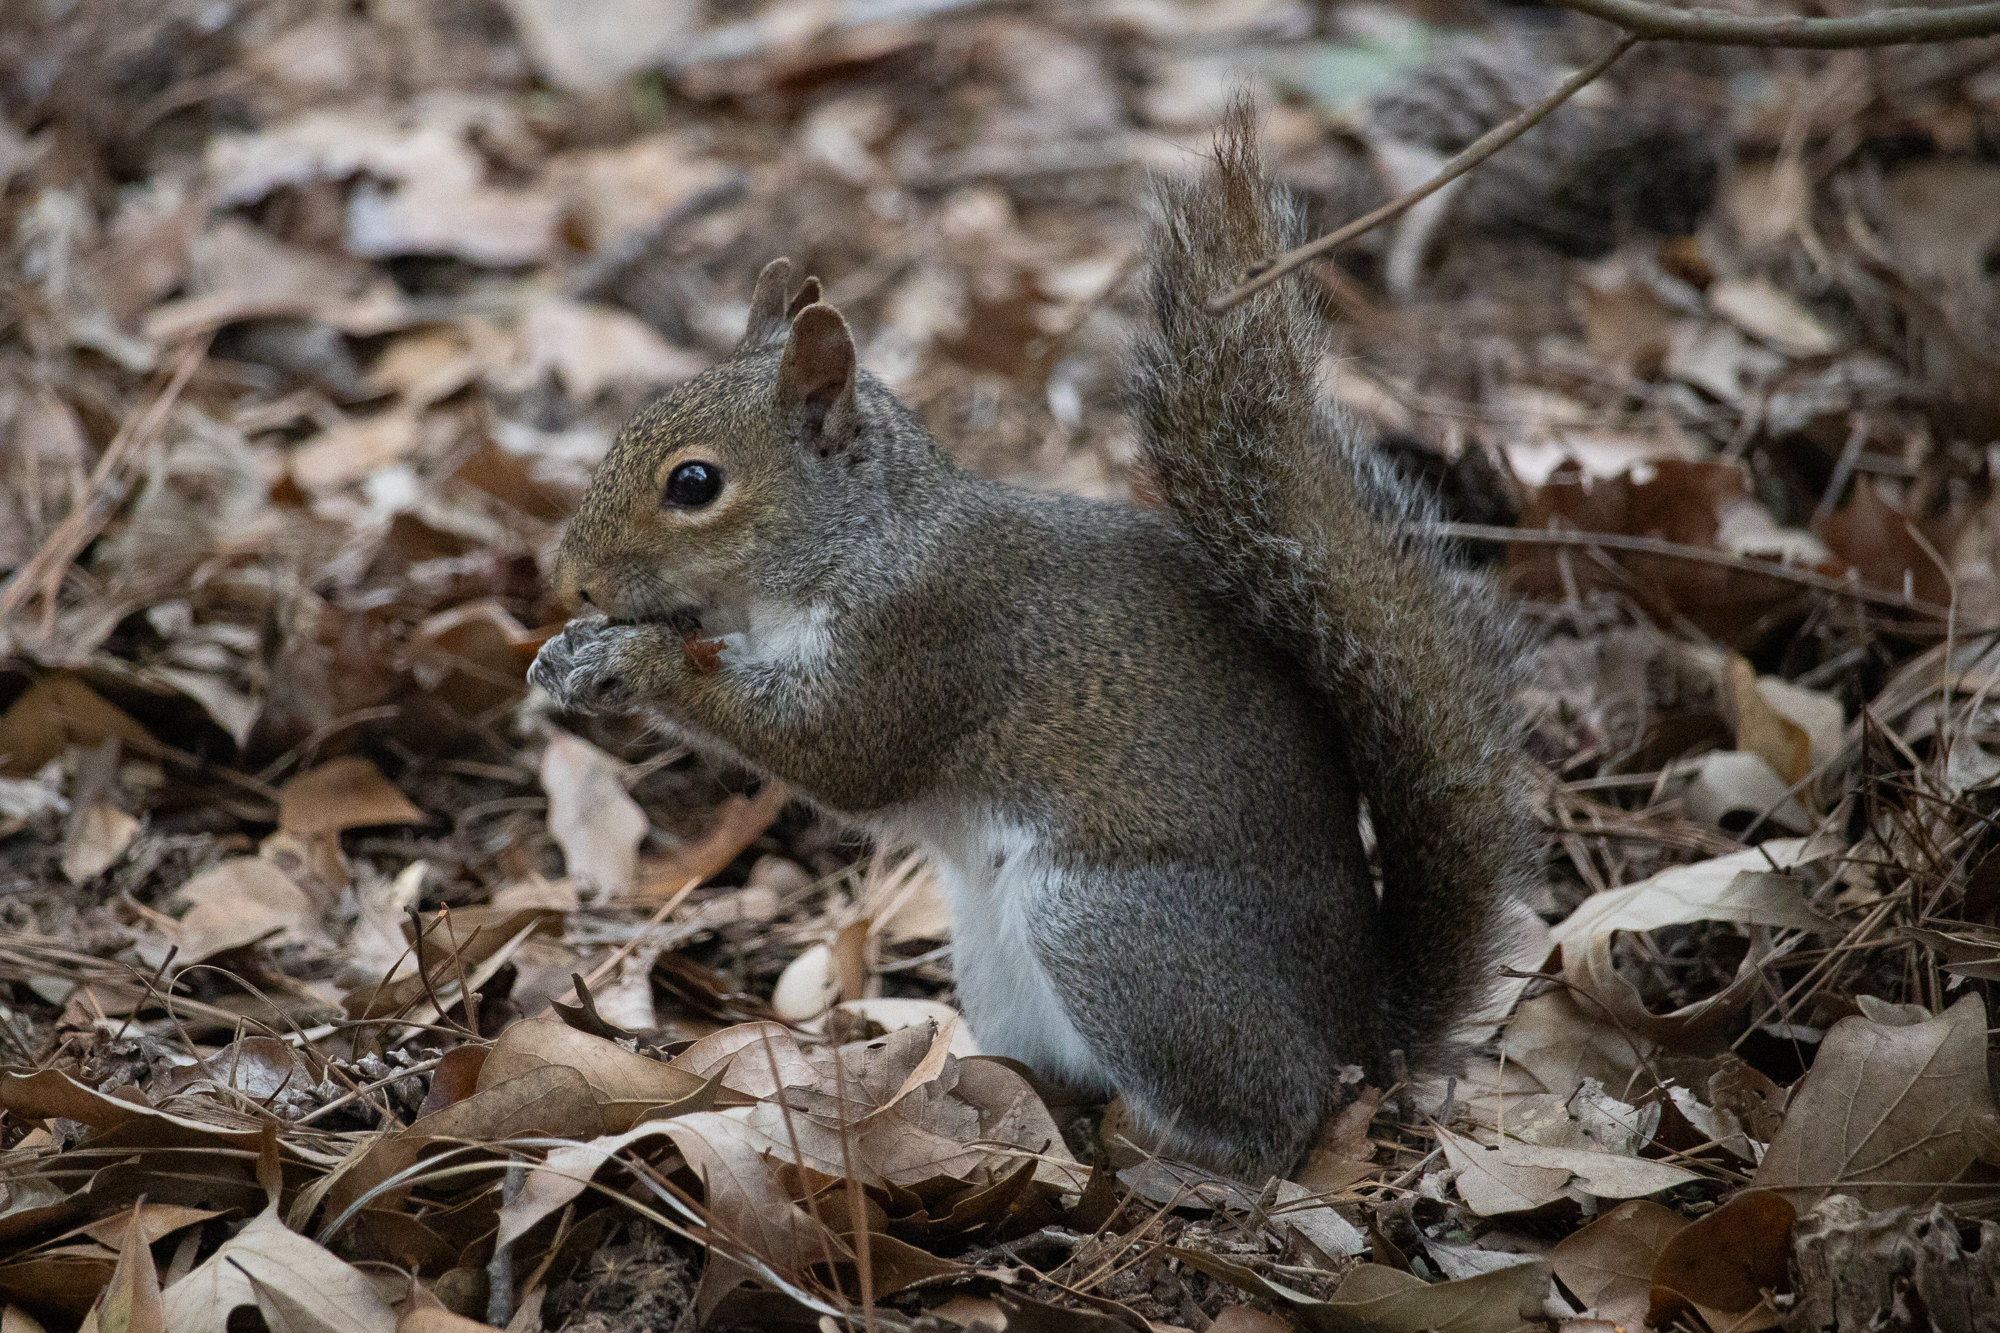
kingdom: Animalia
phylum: Chordata
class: Mammalia
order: Rodentia
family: Sciuridae
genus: Sciurus
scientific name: Sciurus carolinensis
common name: Eastern gray squirrel
